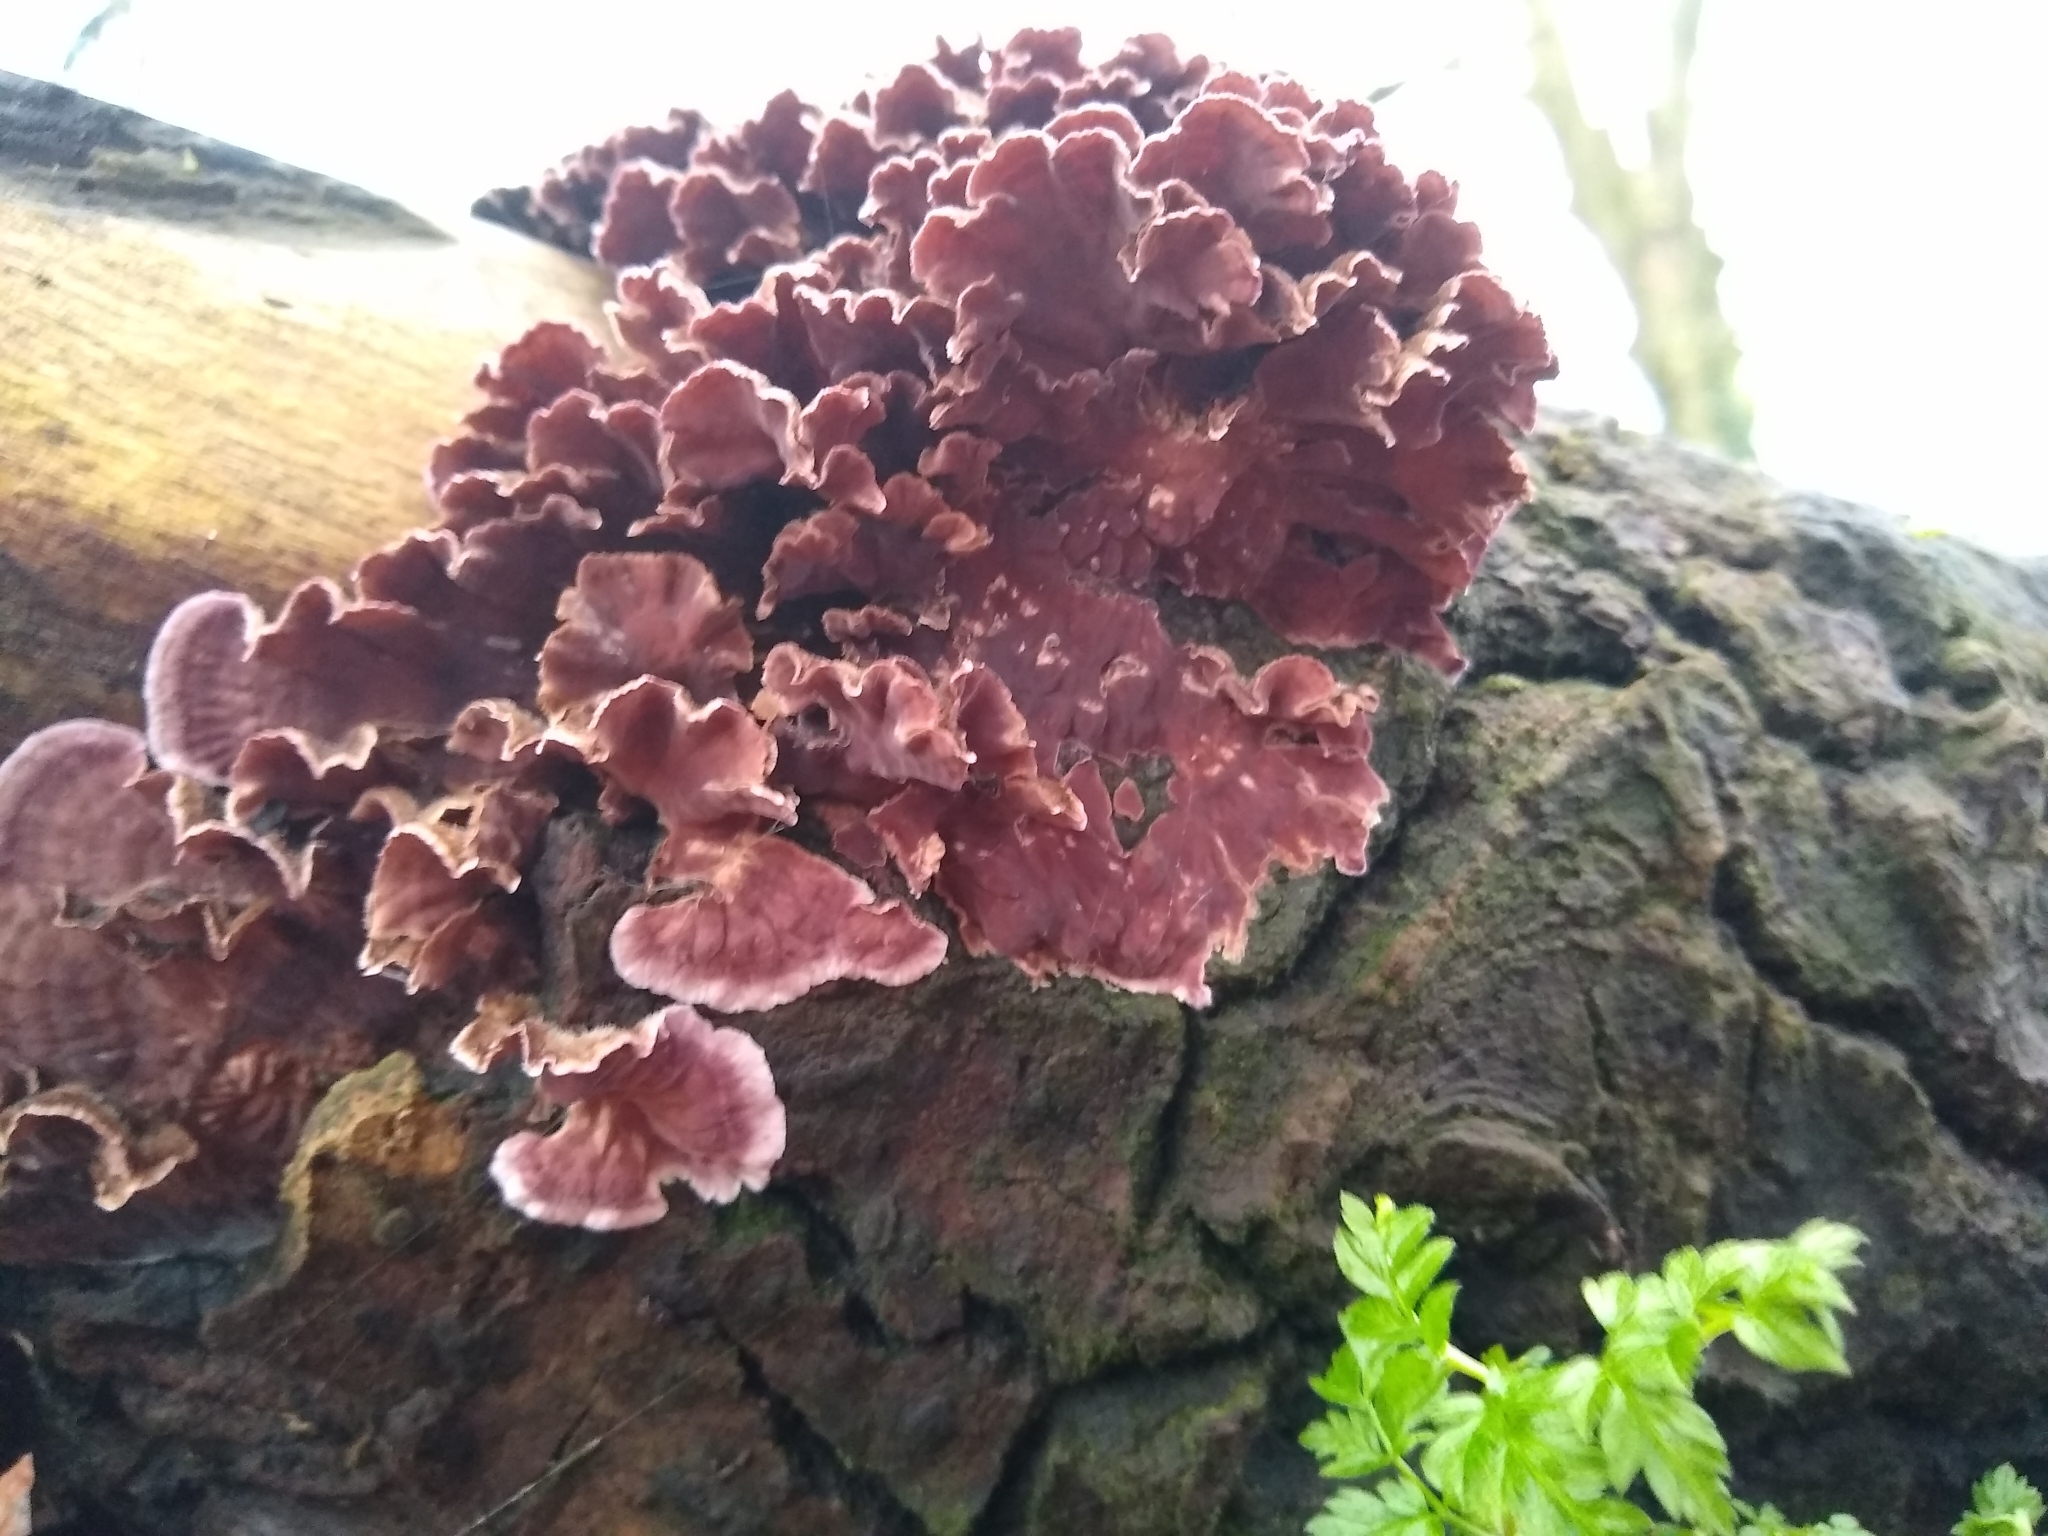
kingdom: Fungi
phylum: Basidiomycota
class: Agaricomycetes
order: Agaricales
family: Cyphellaceae
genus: Chondrostereum
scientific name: Chondrostereum purpureum
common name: Silver leaf disease
